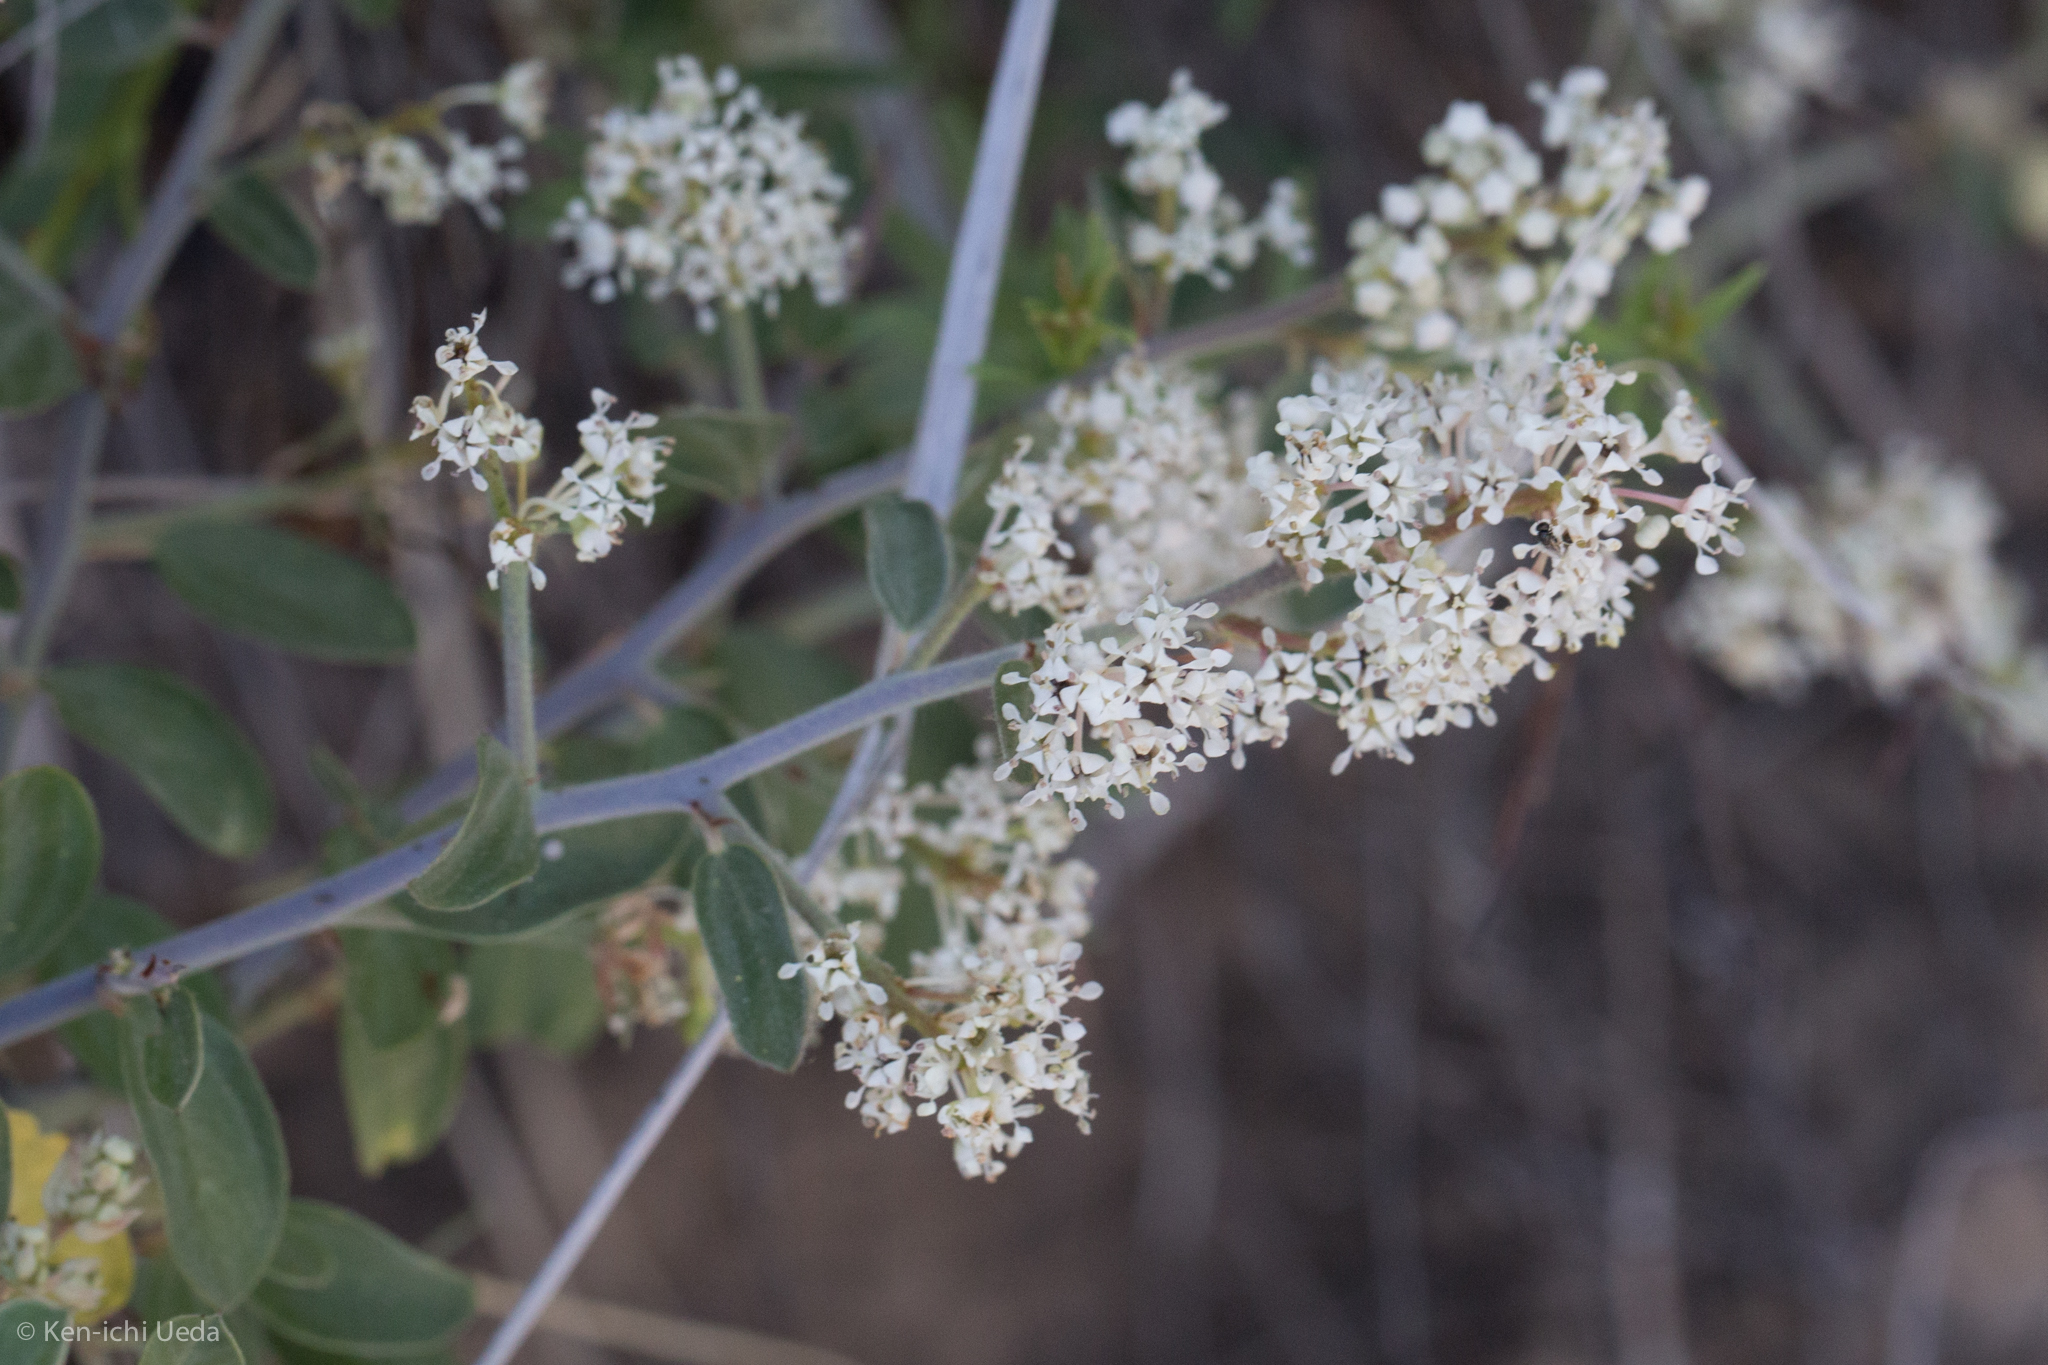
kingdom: Plantae
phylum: Tracheophyta
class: Magnoliopsida
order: Rosales
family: Rhamnaceae
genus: Ceanothus
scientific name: Ceanothus fendleri
